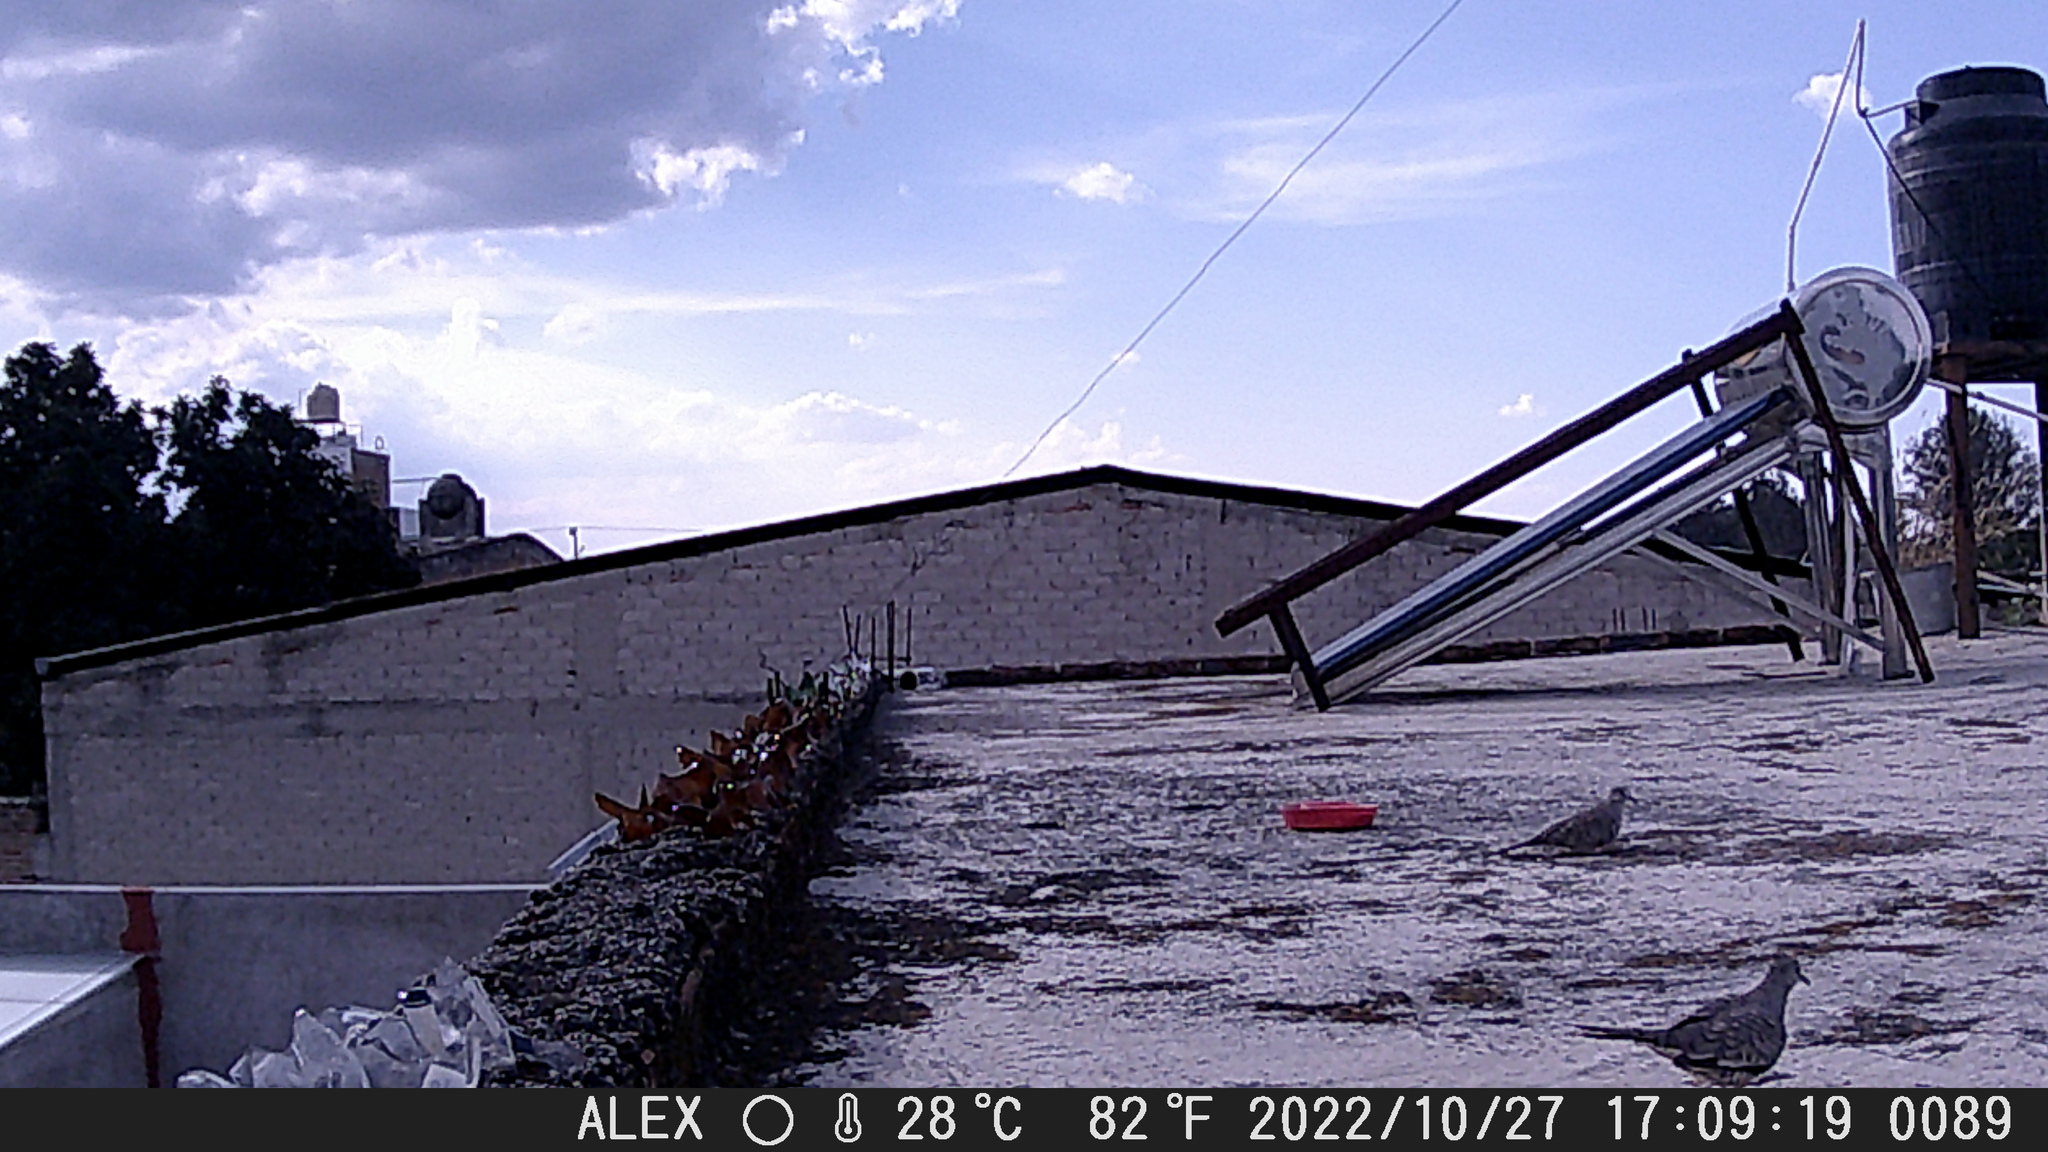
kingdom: Animalia
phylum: Chordata
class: Aves
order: Columbiformes
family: Columbidae
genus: Columbina
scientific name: Columbina inca
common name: Inca dove
